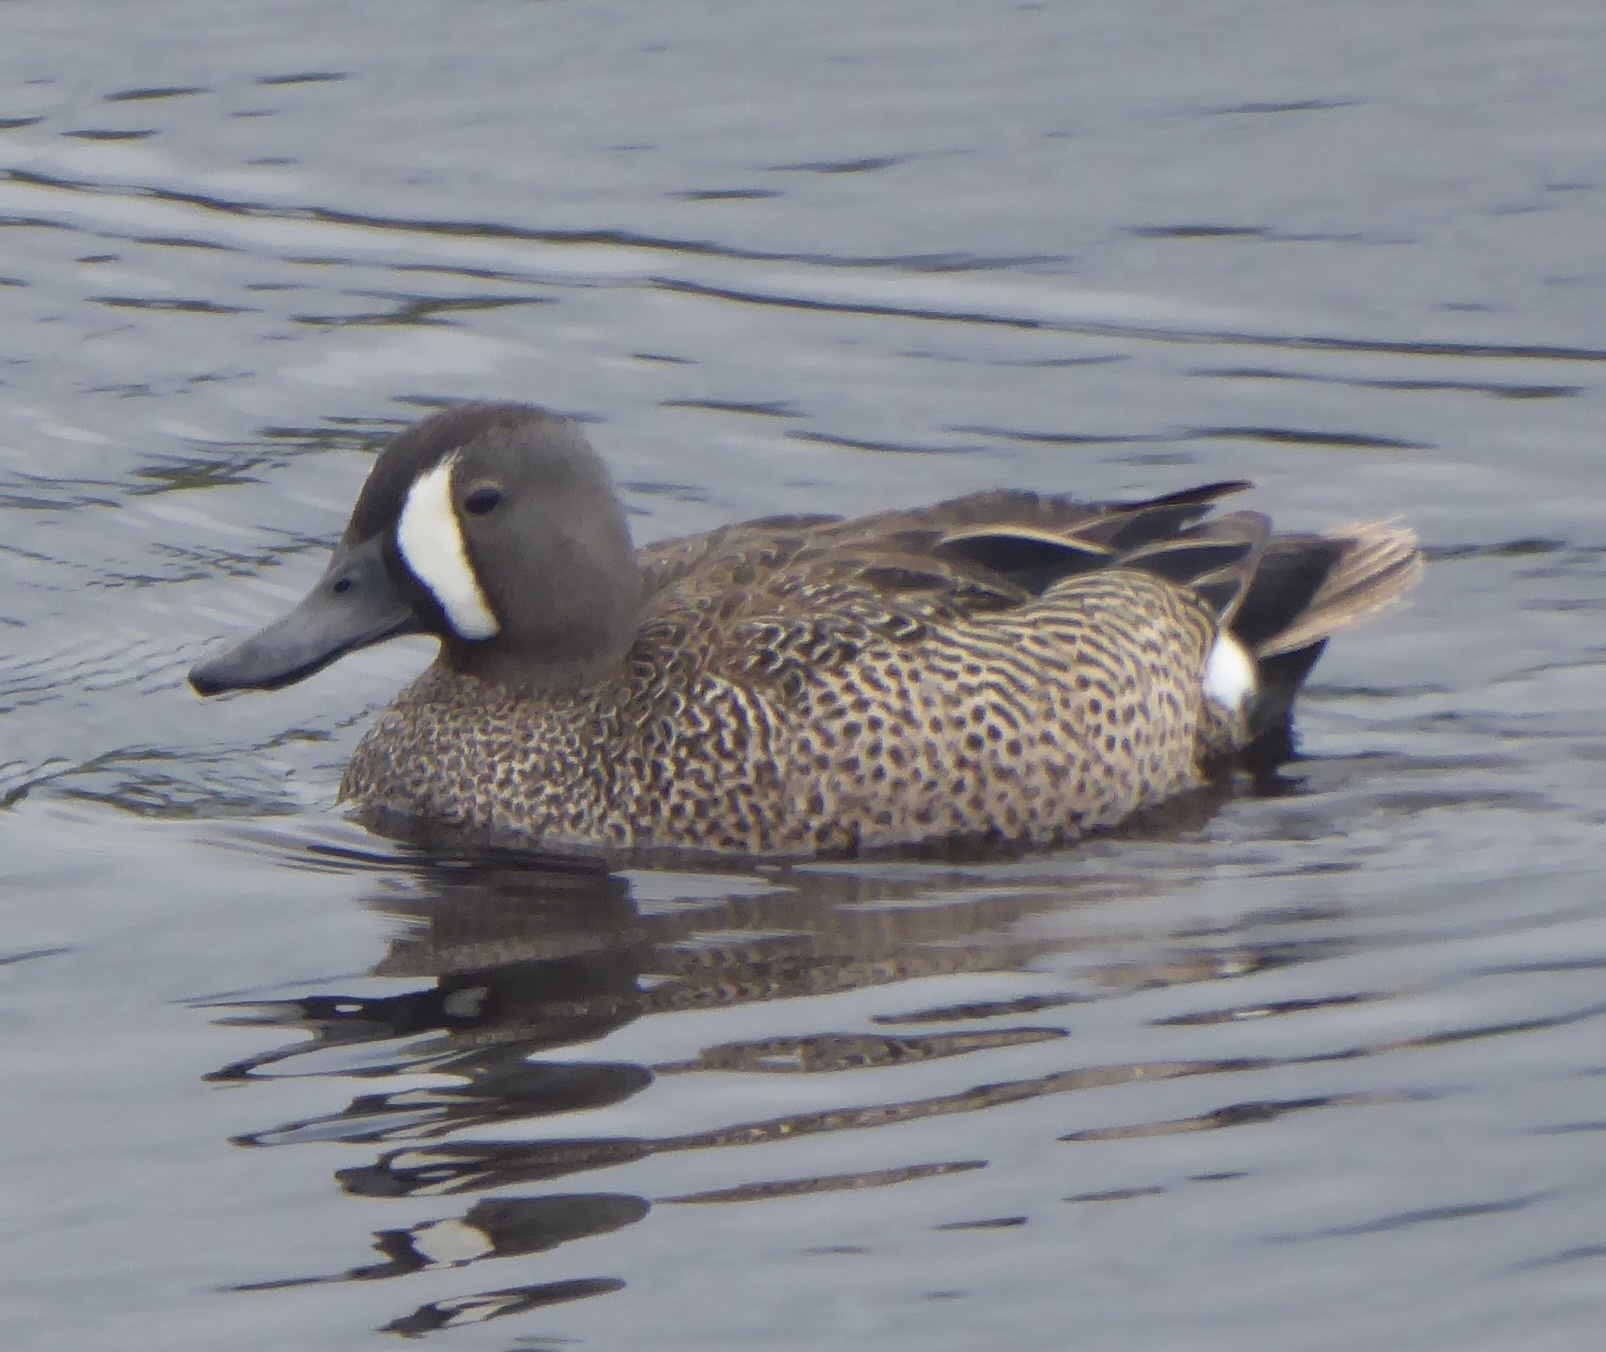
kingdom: Animalia
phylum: Chordata
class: Aves
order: Anseriformes
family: Anatidae
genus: Spatula
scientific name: Spatula discors
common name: Blue-winged teal
